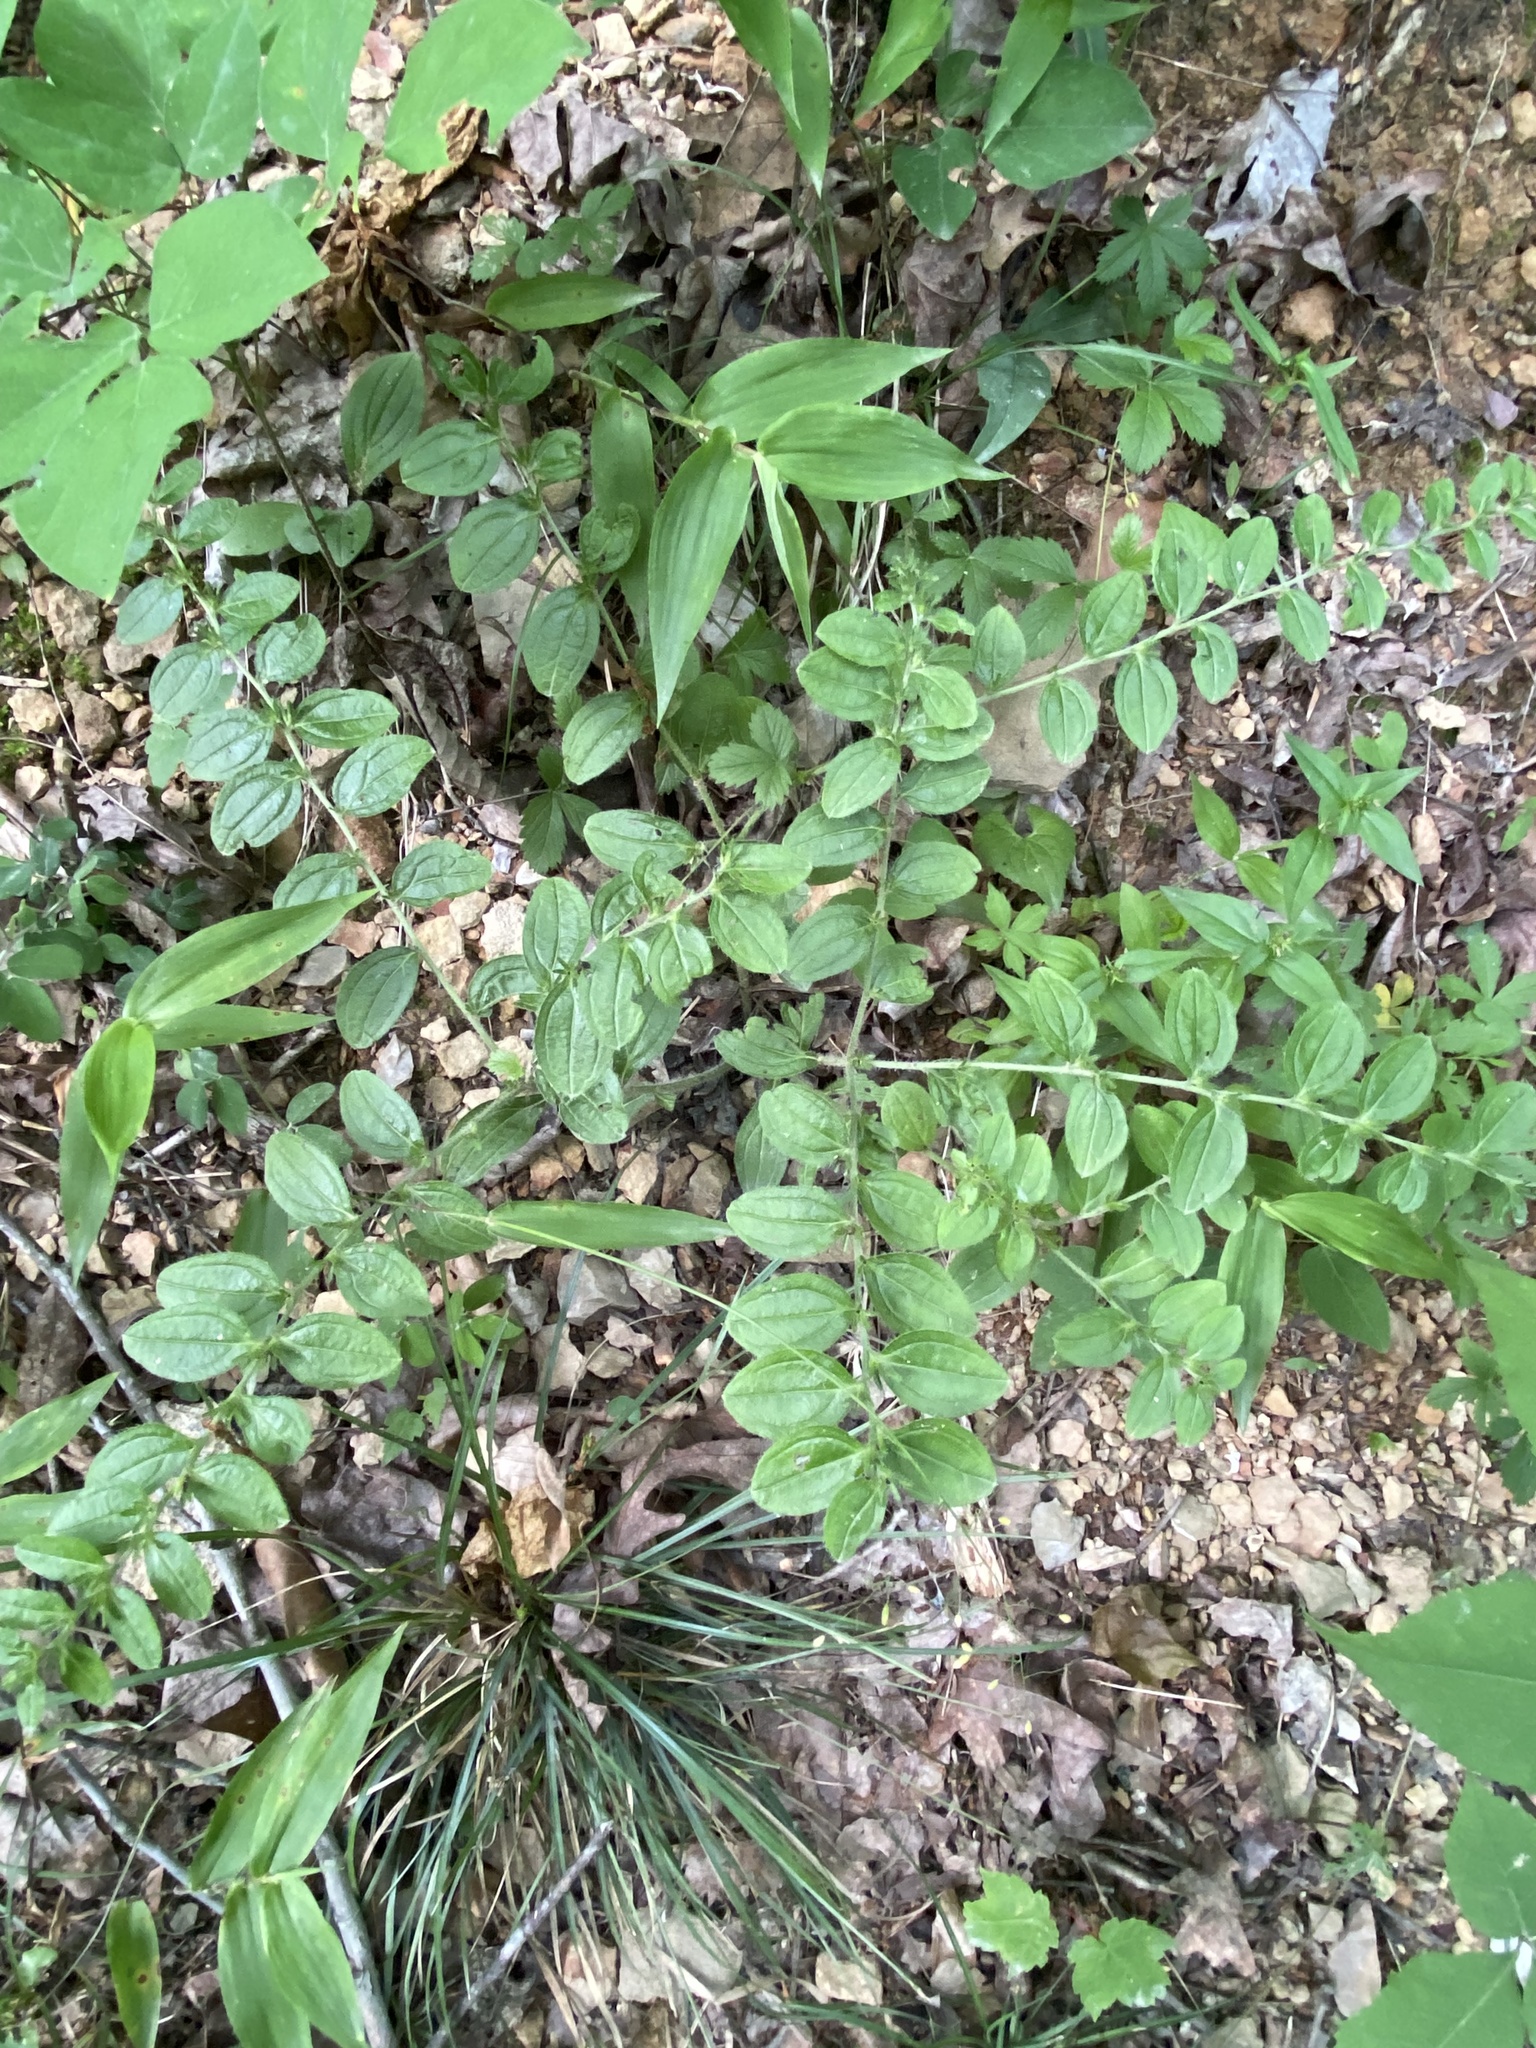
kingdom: Plantae
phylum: Tracheophyta
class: Magnoliopsida
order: Boraginales
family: Boraginaceae
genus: Lithospermum
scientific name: Lithospermum tuberosum
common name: Southern stoneseed
